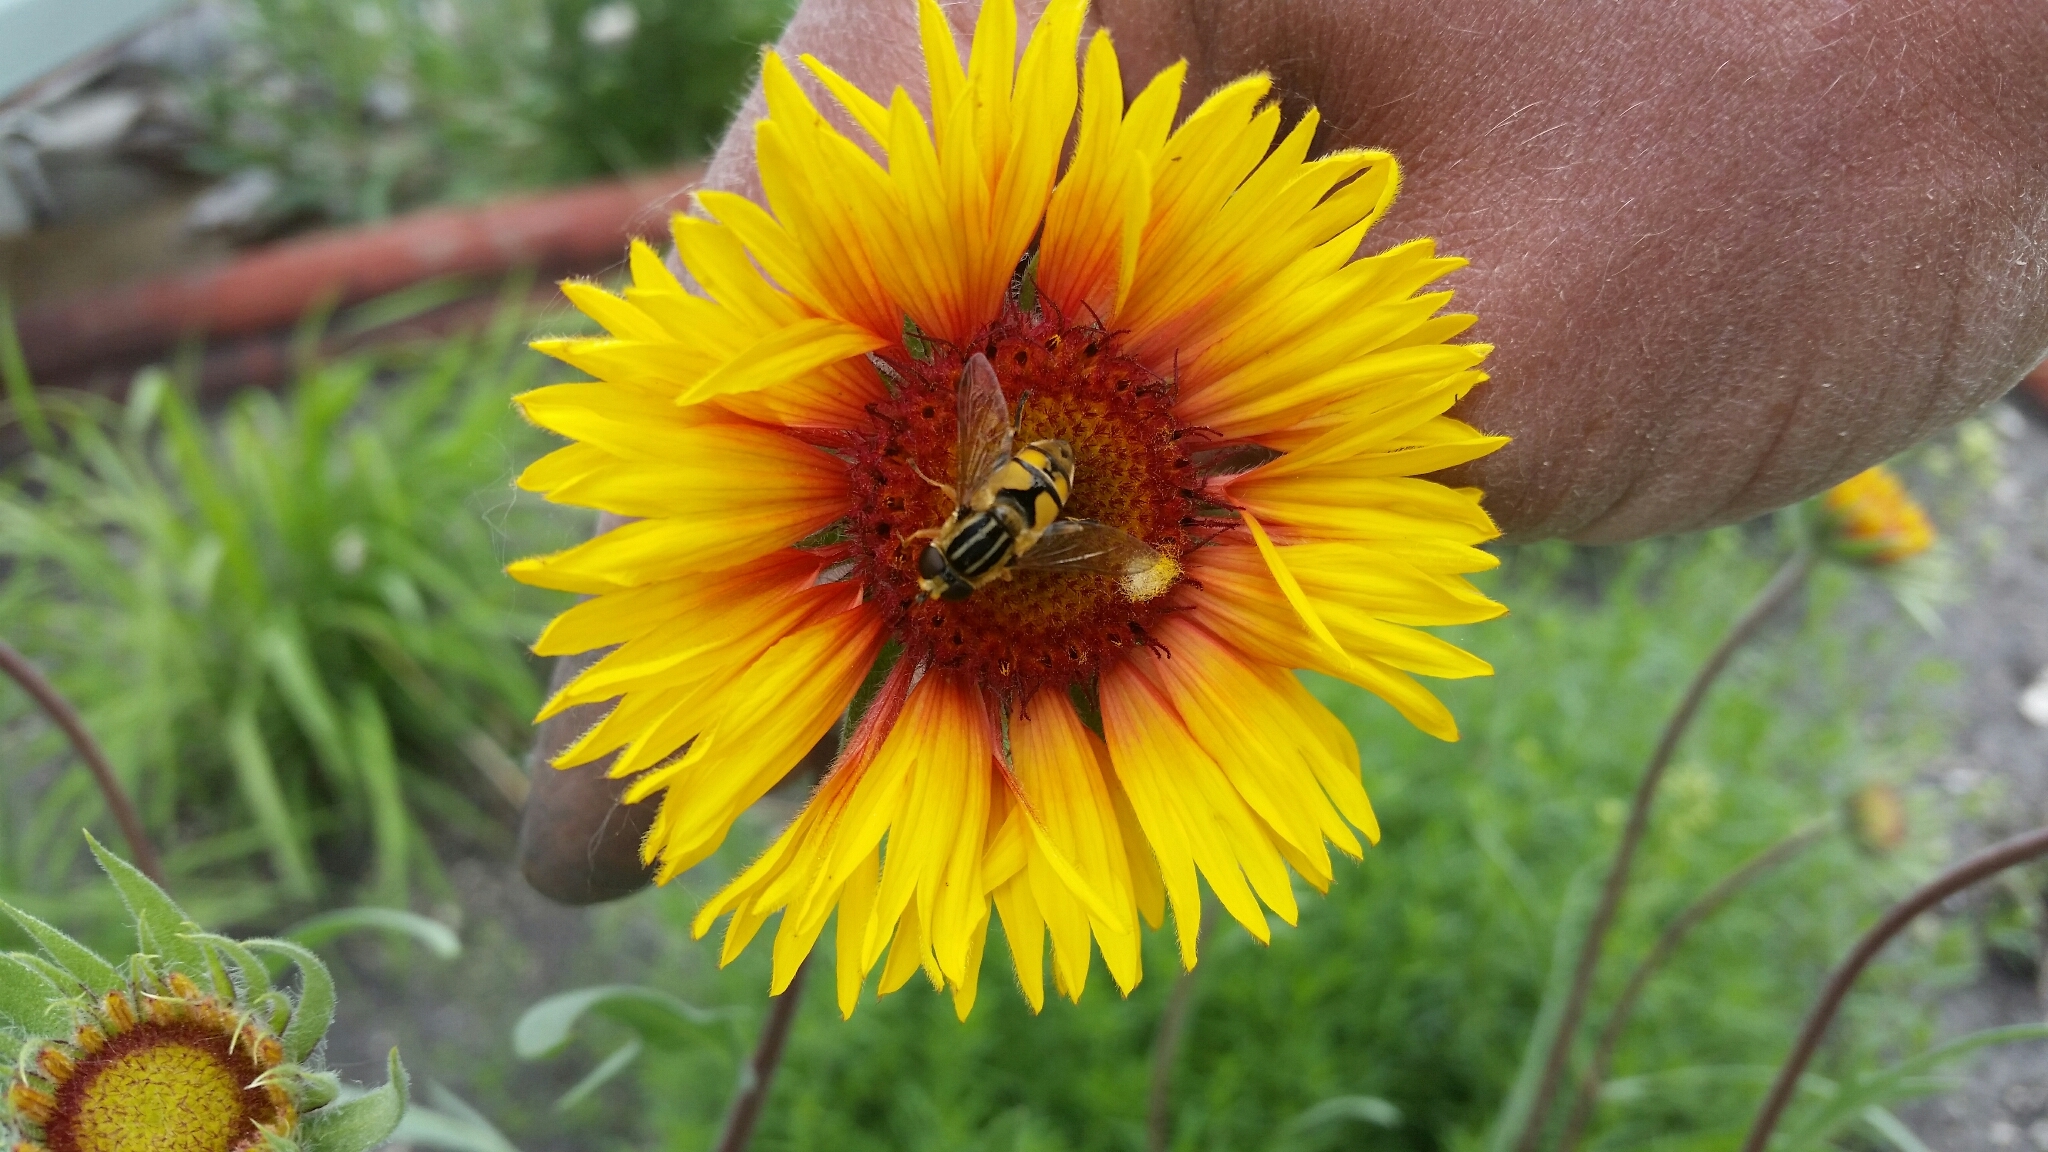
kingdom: Animalia
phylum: Arthropoda
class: Insecta
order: Diptera
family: Syrphidae
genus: Helophilus
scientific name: Helophilus hybridus
